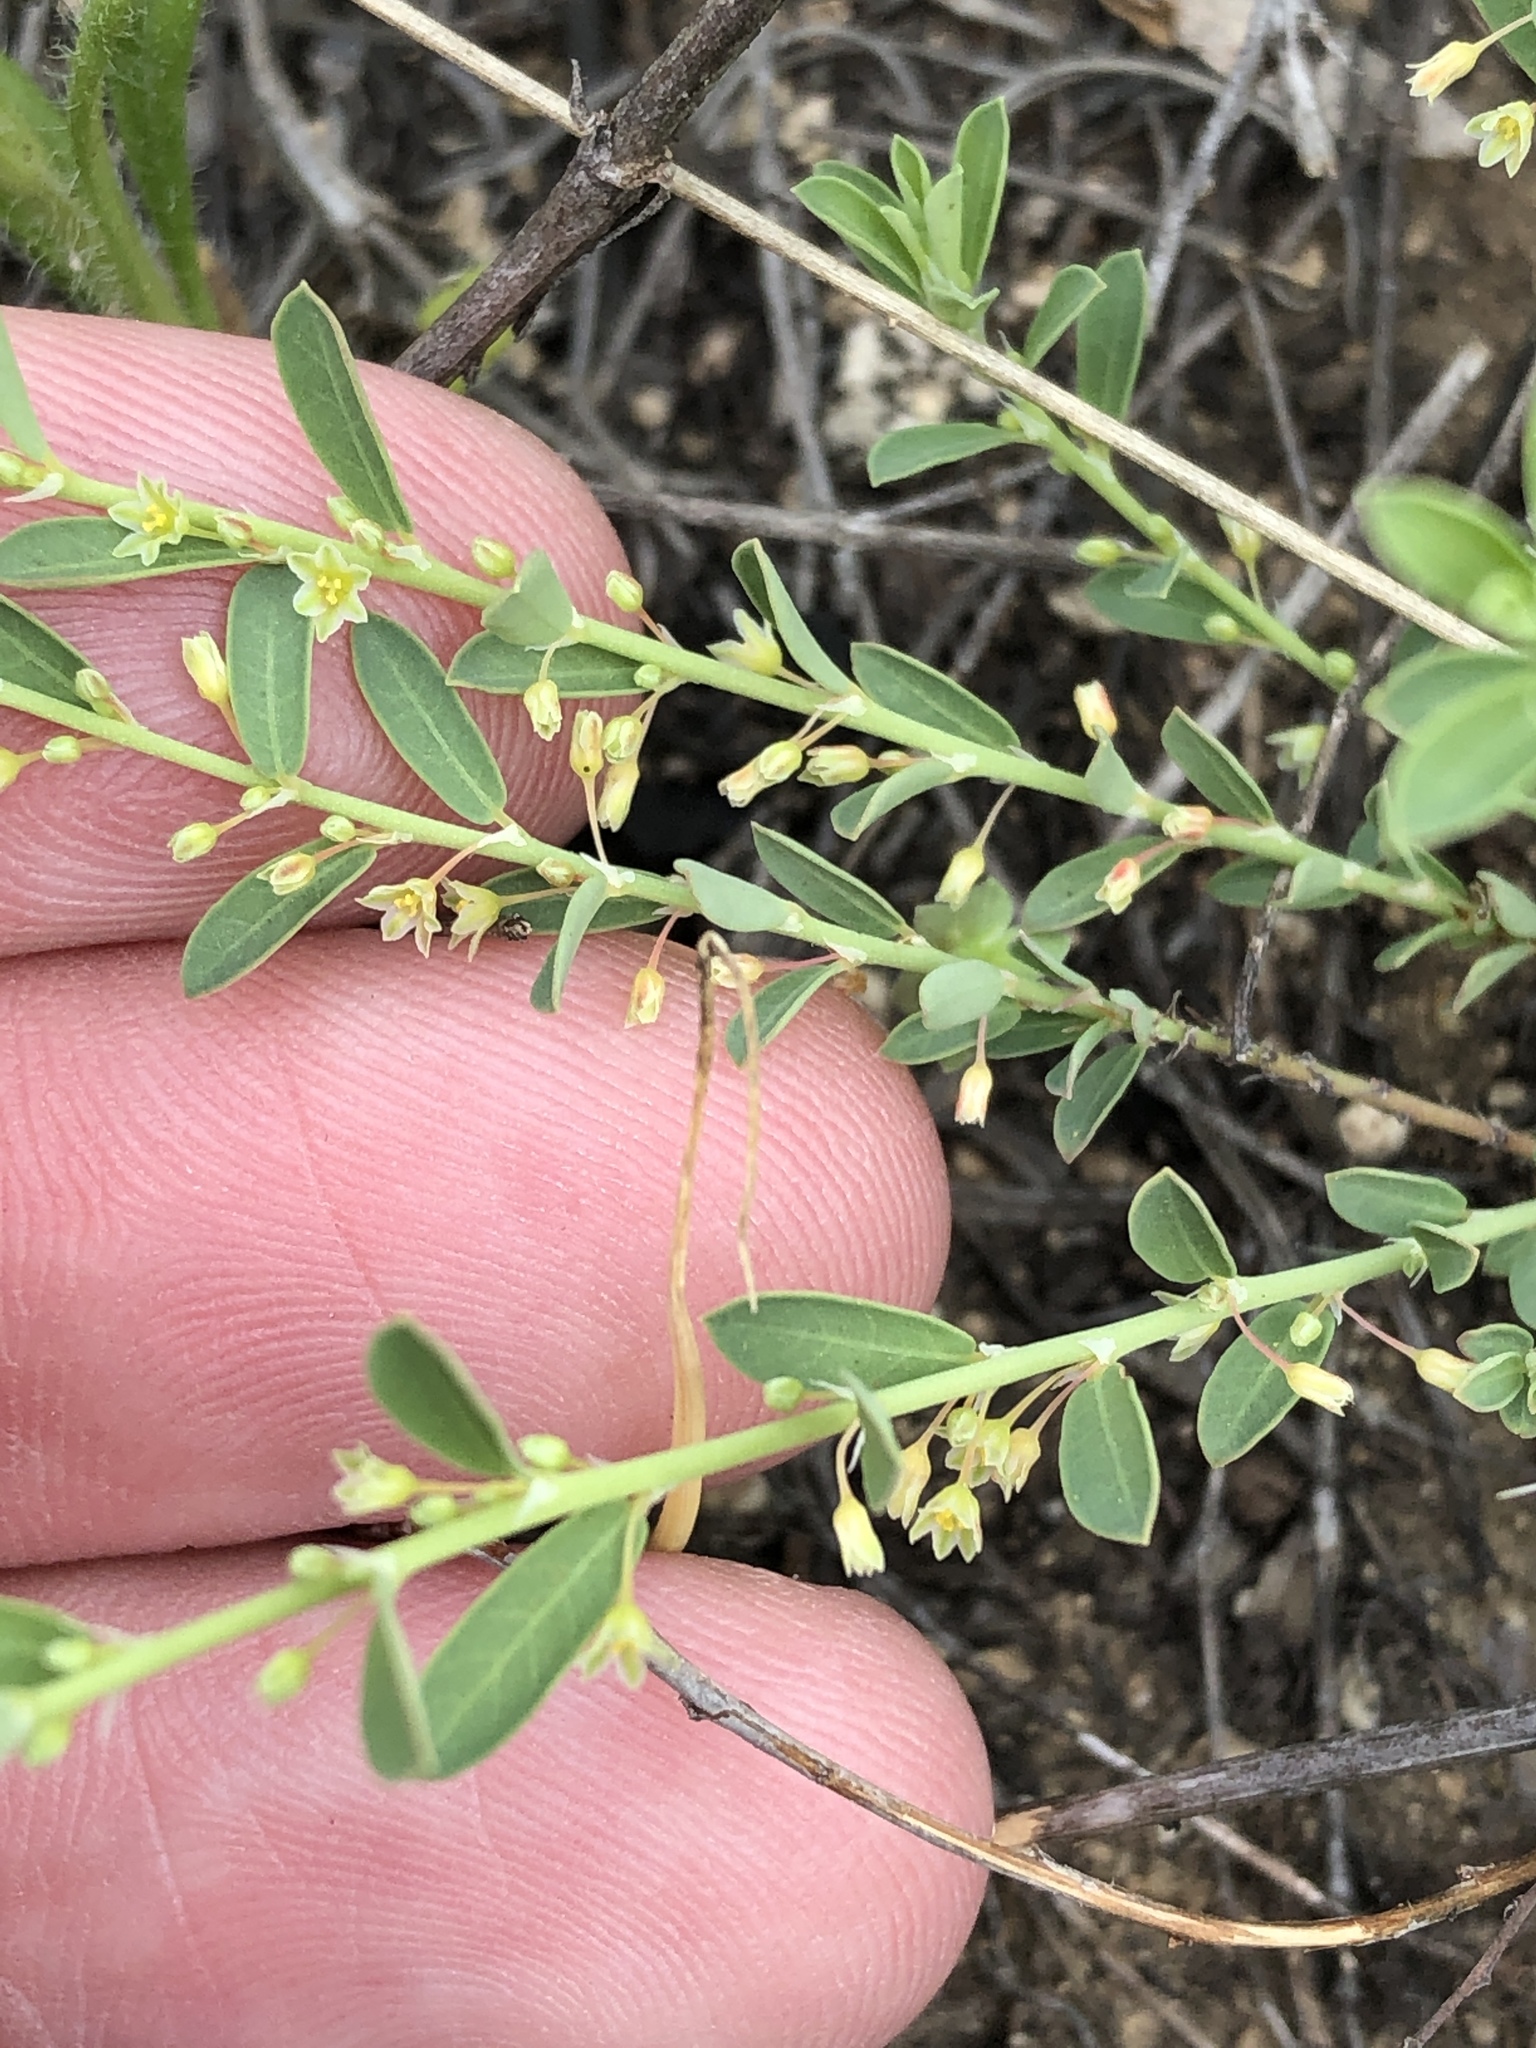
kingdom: Plantae
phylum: Tracheophyta
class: Magnoliopsida
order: Malpighiales
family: Phyllanthaceae
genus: Phyllanthus
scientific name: Phyllanthus polygonoides
